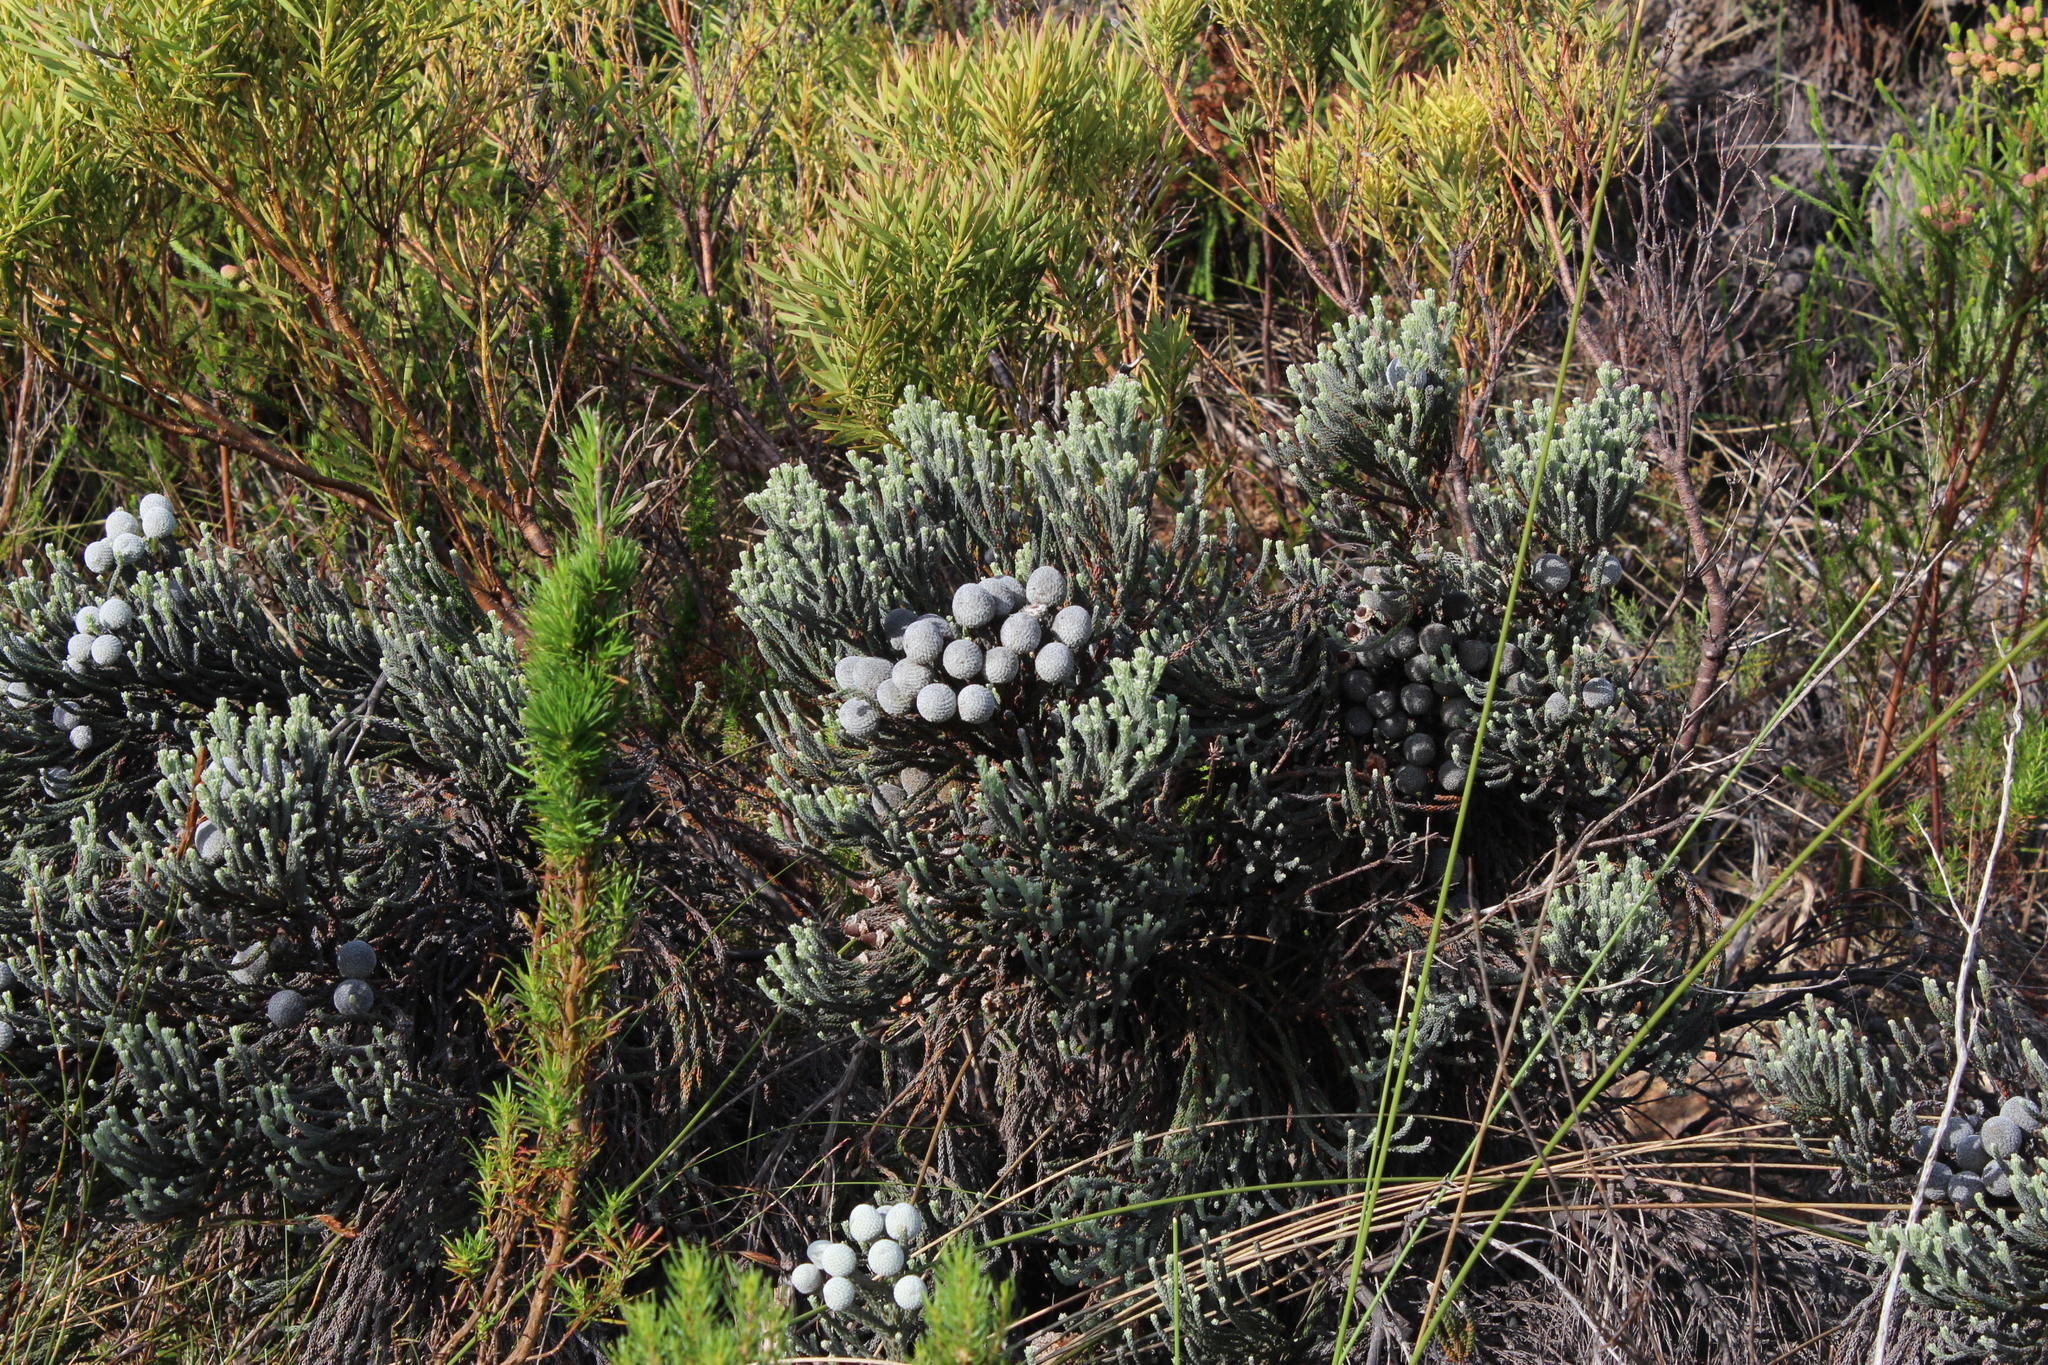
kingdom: Plantae
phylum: Tracheophyta
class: Magnoliopsida
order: Bruniales
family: Bruniaceae
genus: Brunia
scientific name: Brunia laevis
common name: Silver brunia
